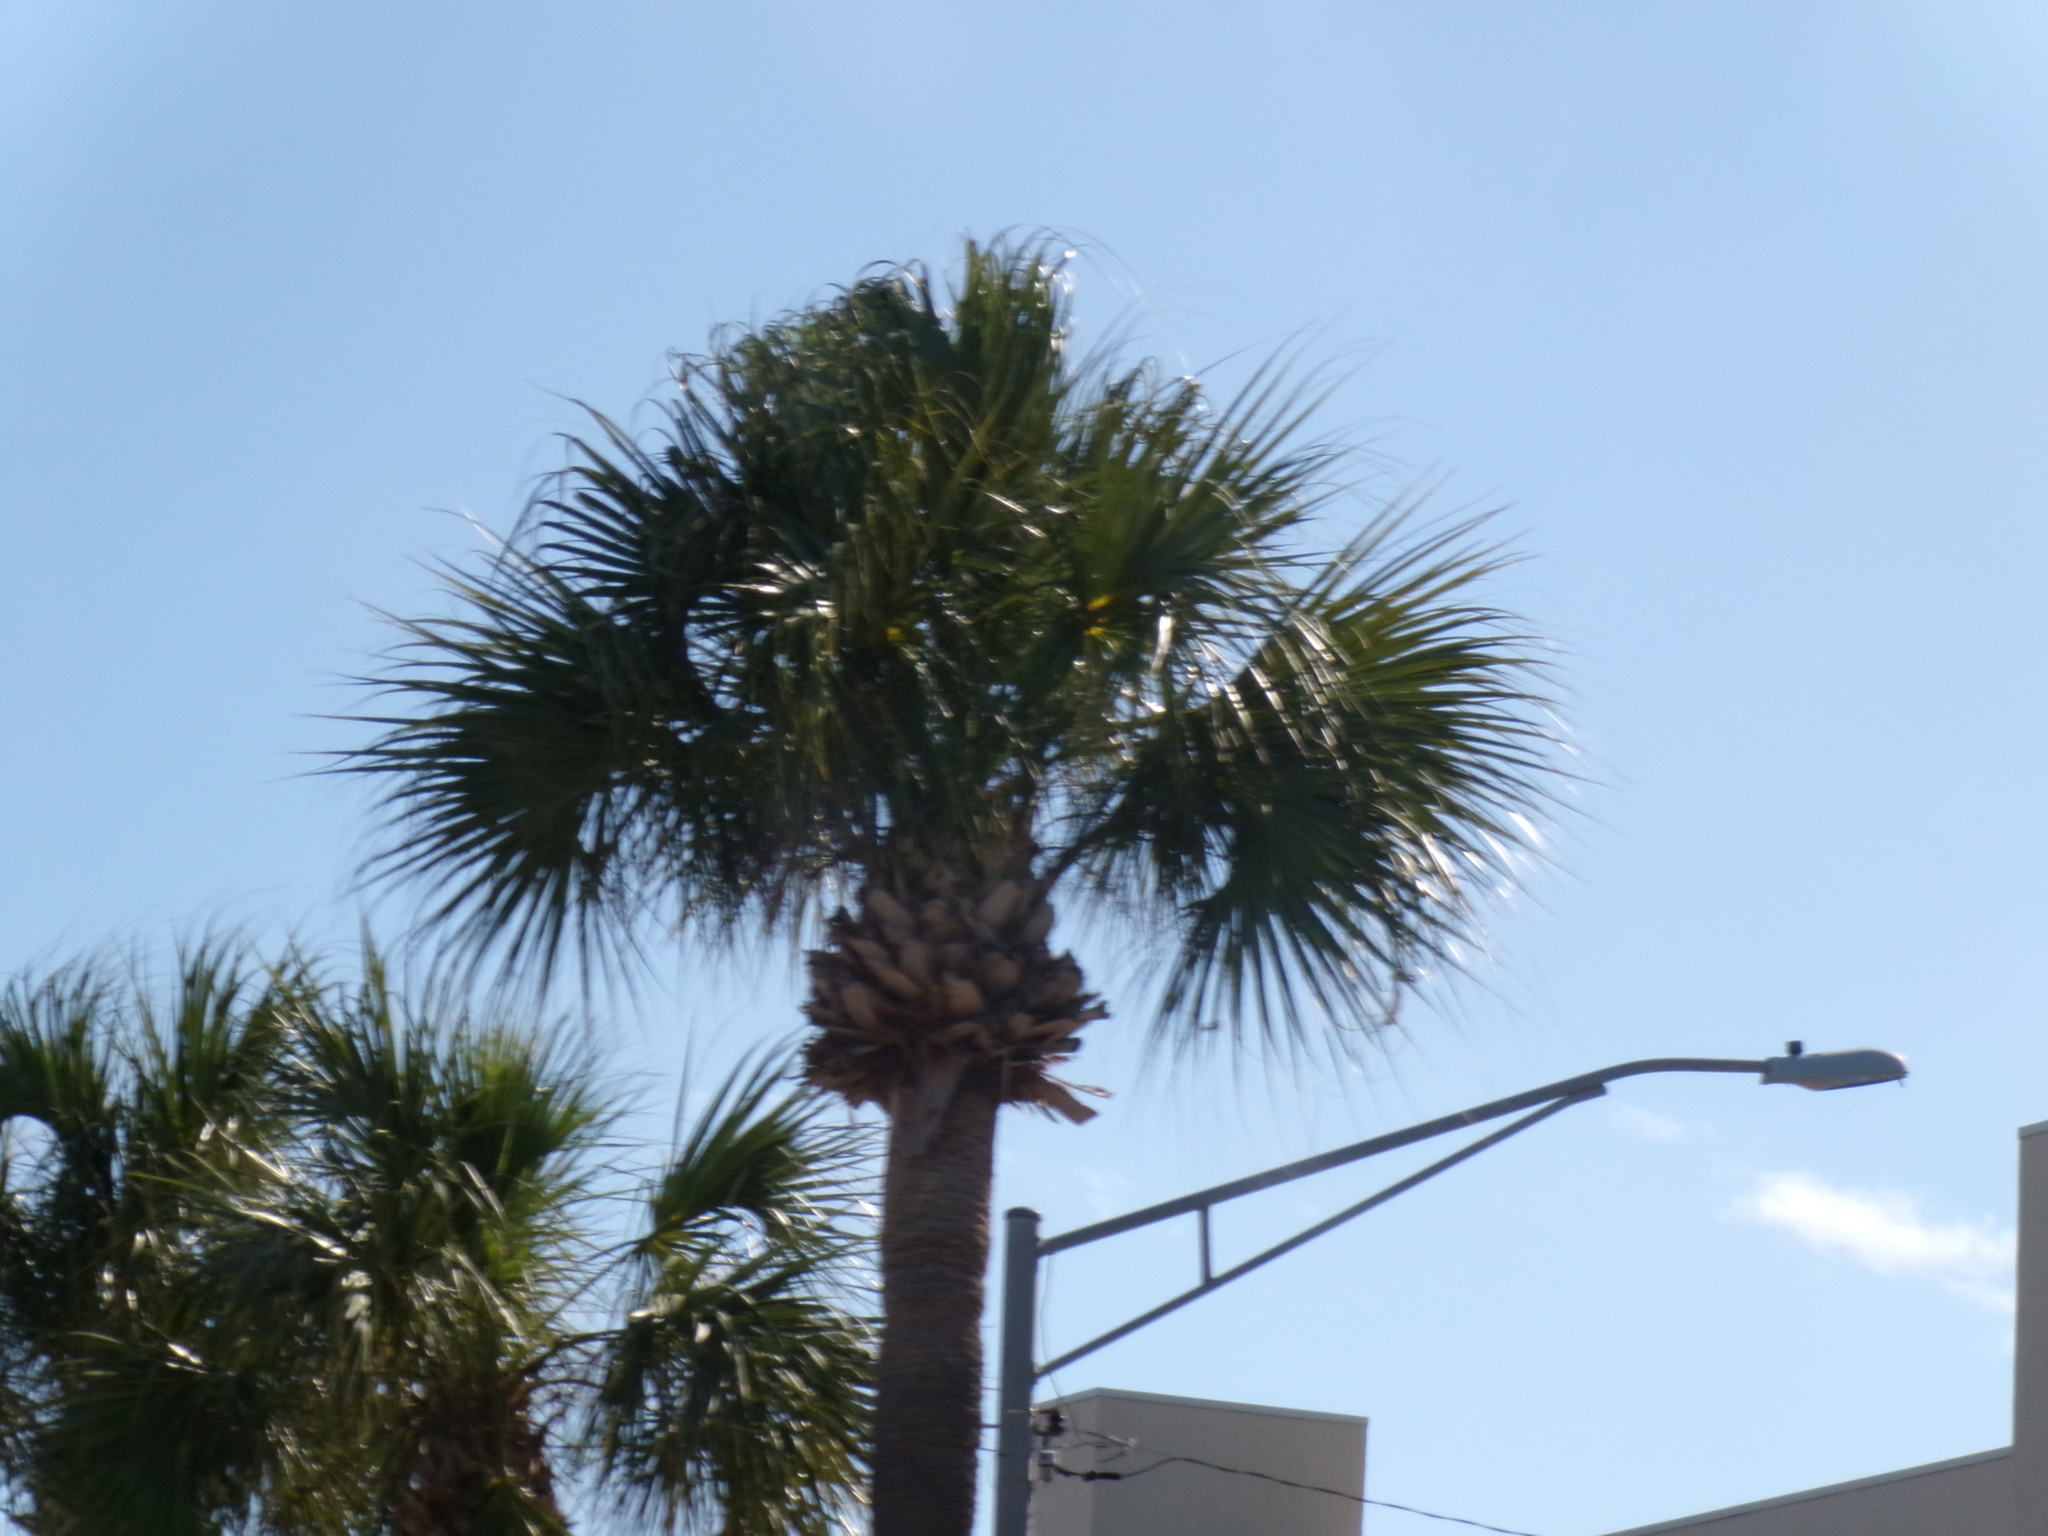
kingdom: Plantae
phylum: Tracheophyta
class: Liliopsida
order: Arecales
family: Arecaceae
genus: Sabal
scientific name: Sabal palmetto
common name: Blue palmetto
